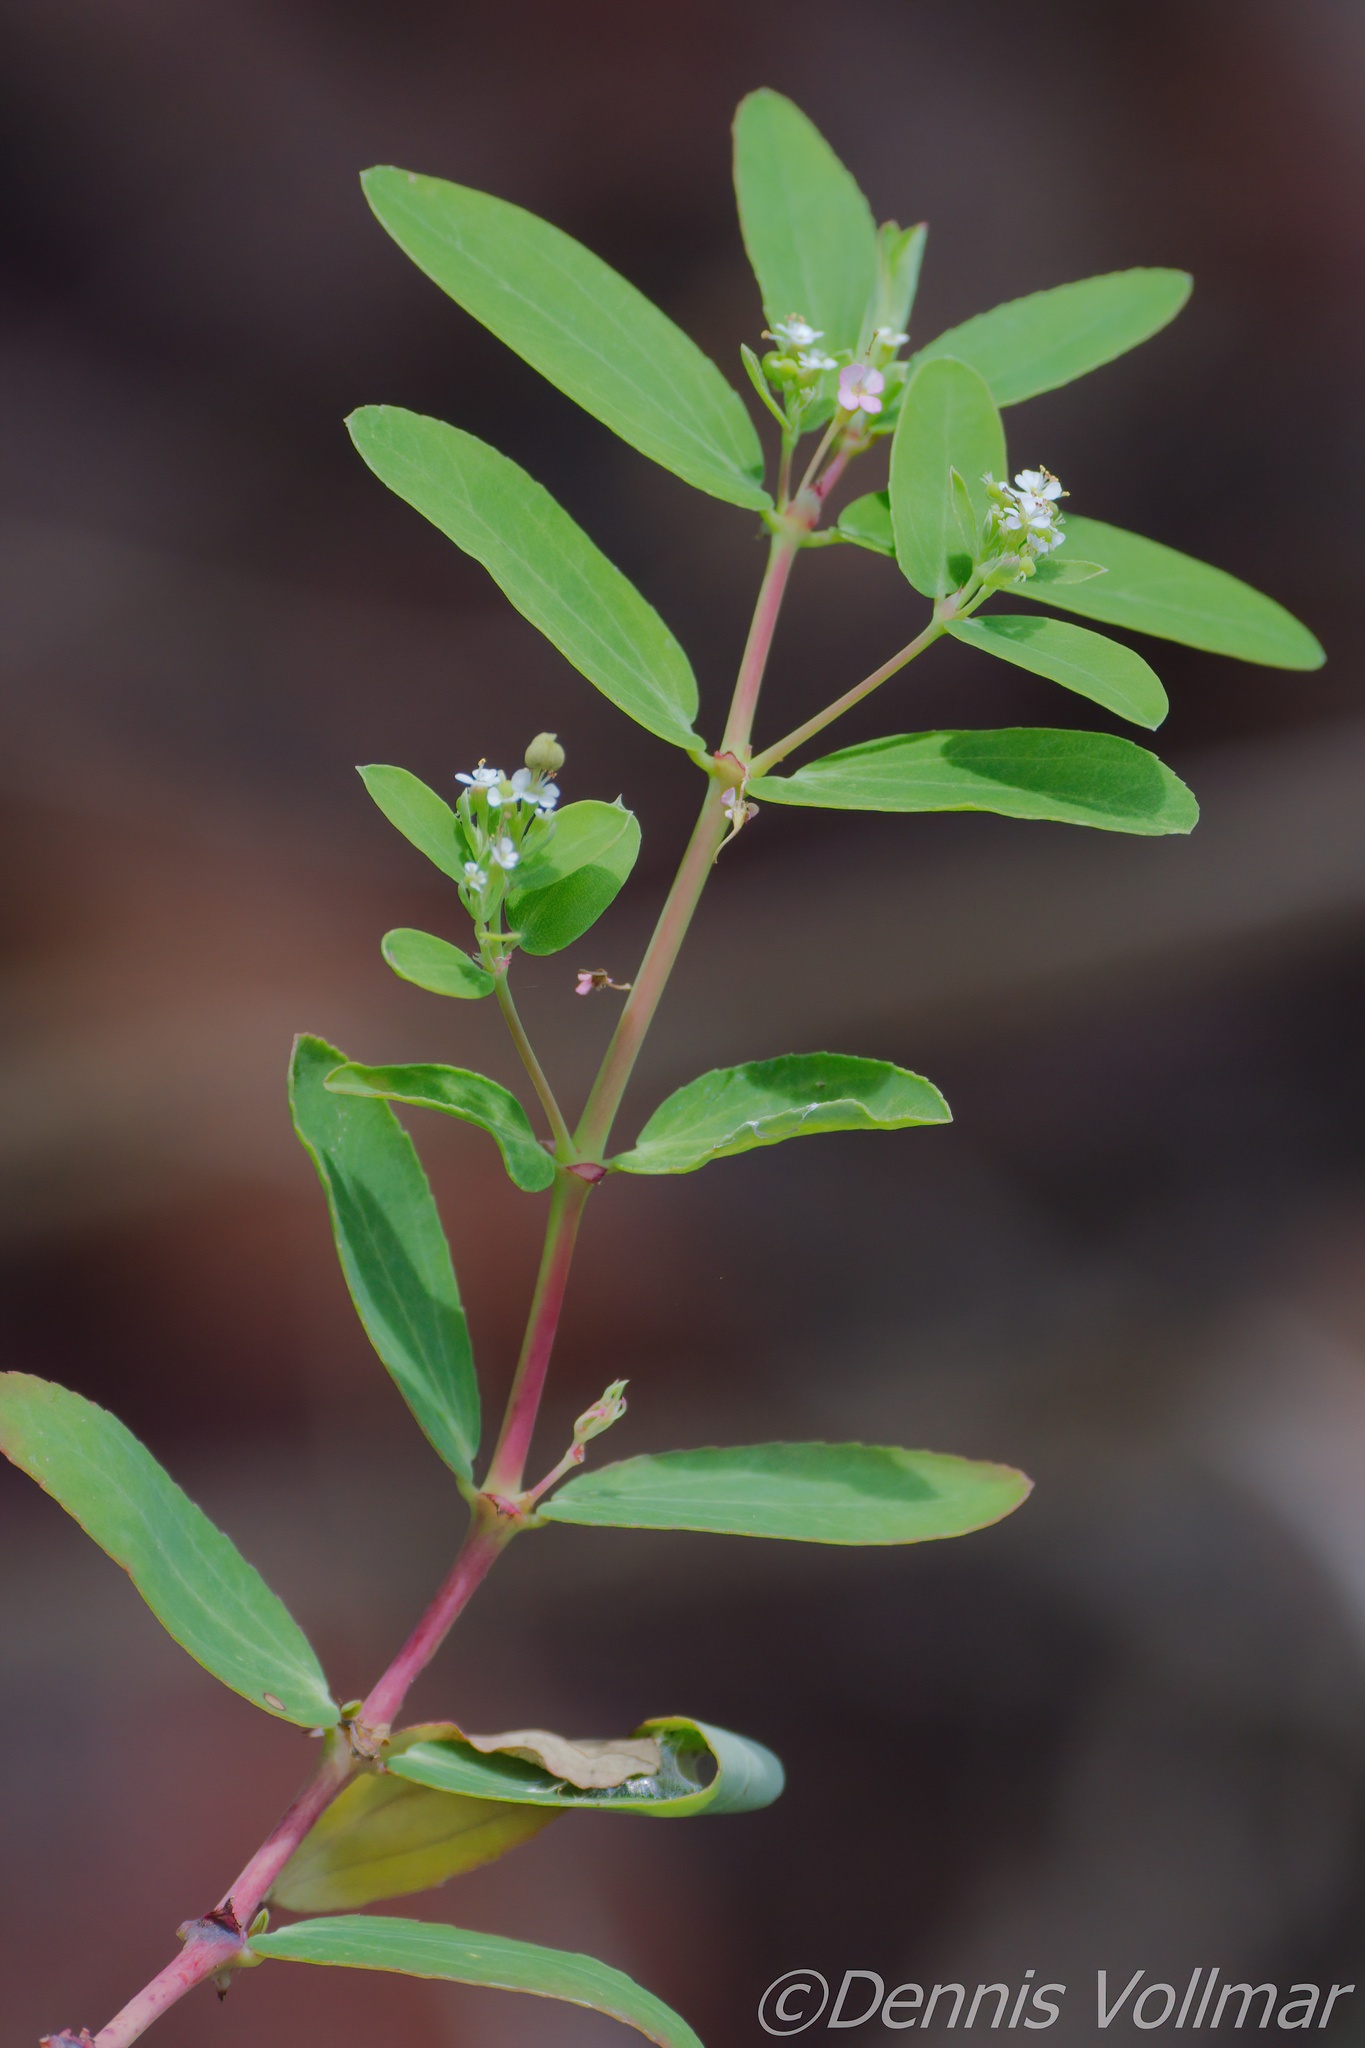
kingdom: Plantae
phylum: Tracheophyta
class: Magnoliopsida
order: Malpighiales
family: Euphorbiaceae
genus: Euphorbia
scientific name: Euphorbia hypericifolia
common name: Graceful sandmat
